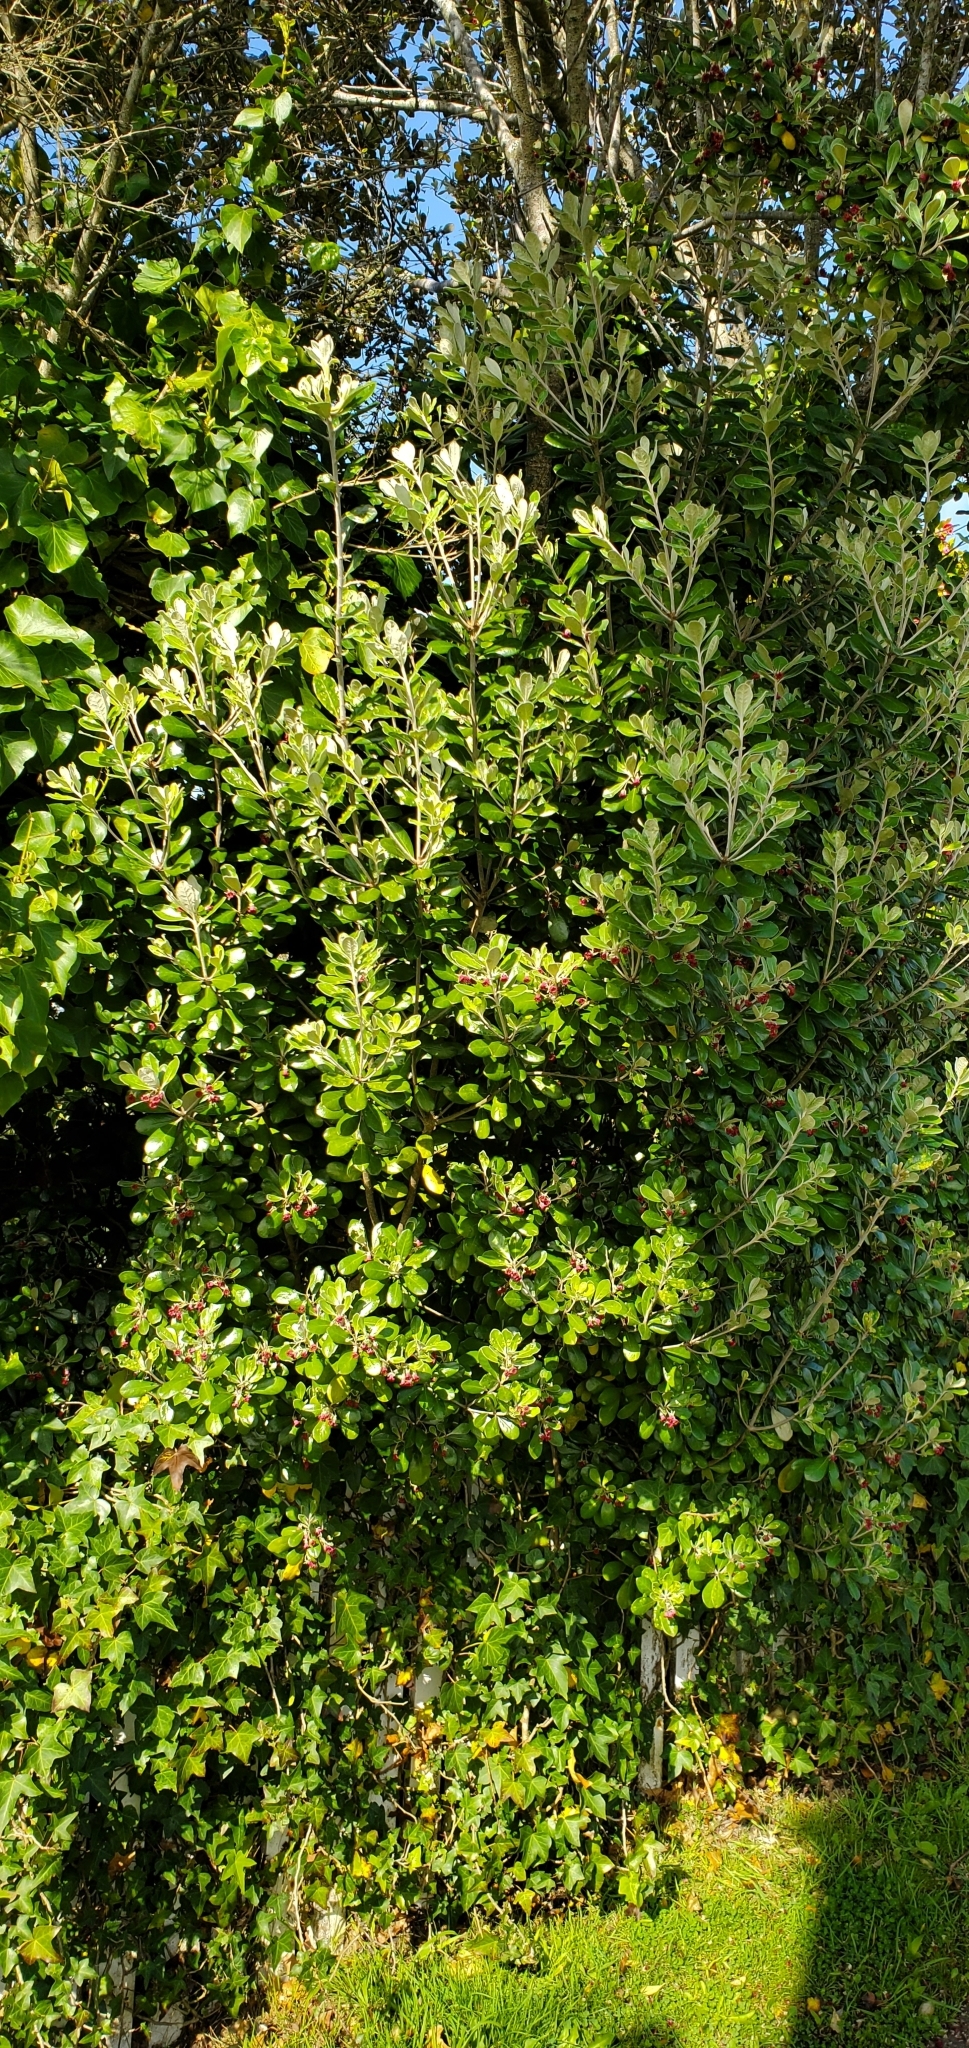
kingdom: Plantae
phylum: Tracheophyta
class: Magnoliopsida
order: Apiales
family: Pittosporaceae
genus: Pittosporum
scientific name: Pittosporum crassifolium
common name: Karo
